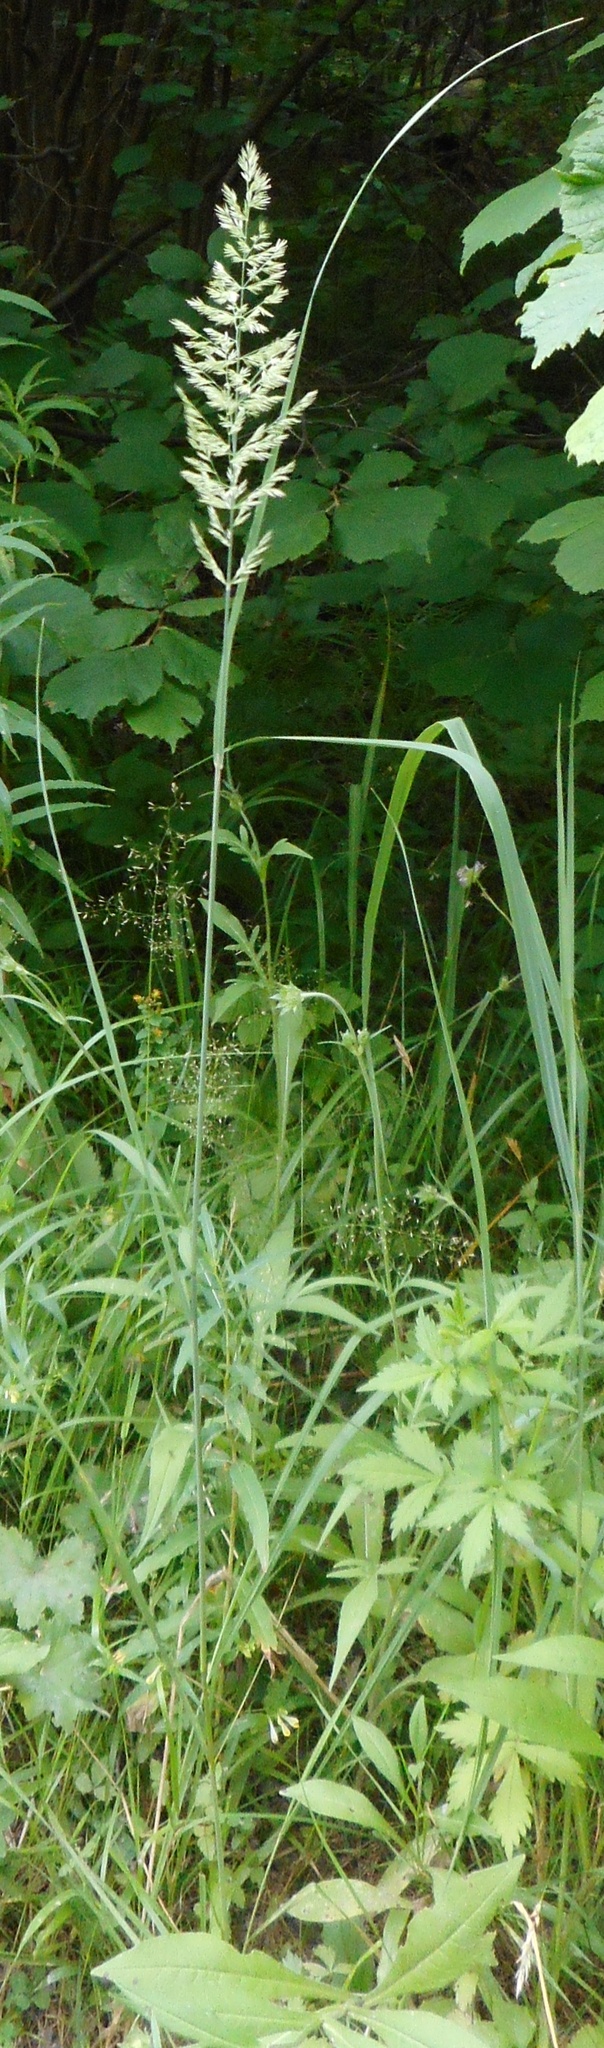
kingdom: Plantae
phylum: Tracheophyta
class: Liliopsida
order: Poales
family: Poaceae
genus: Calamagrostis
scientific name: Calamagrostis epigejos
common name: Wood small-reed
